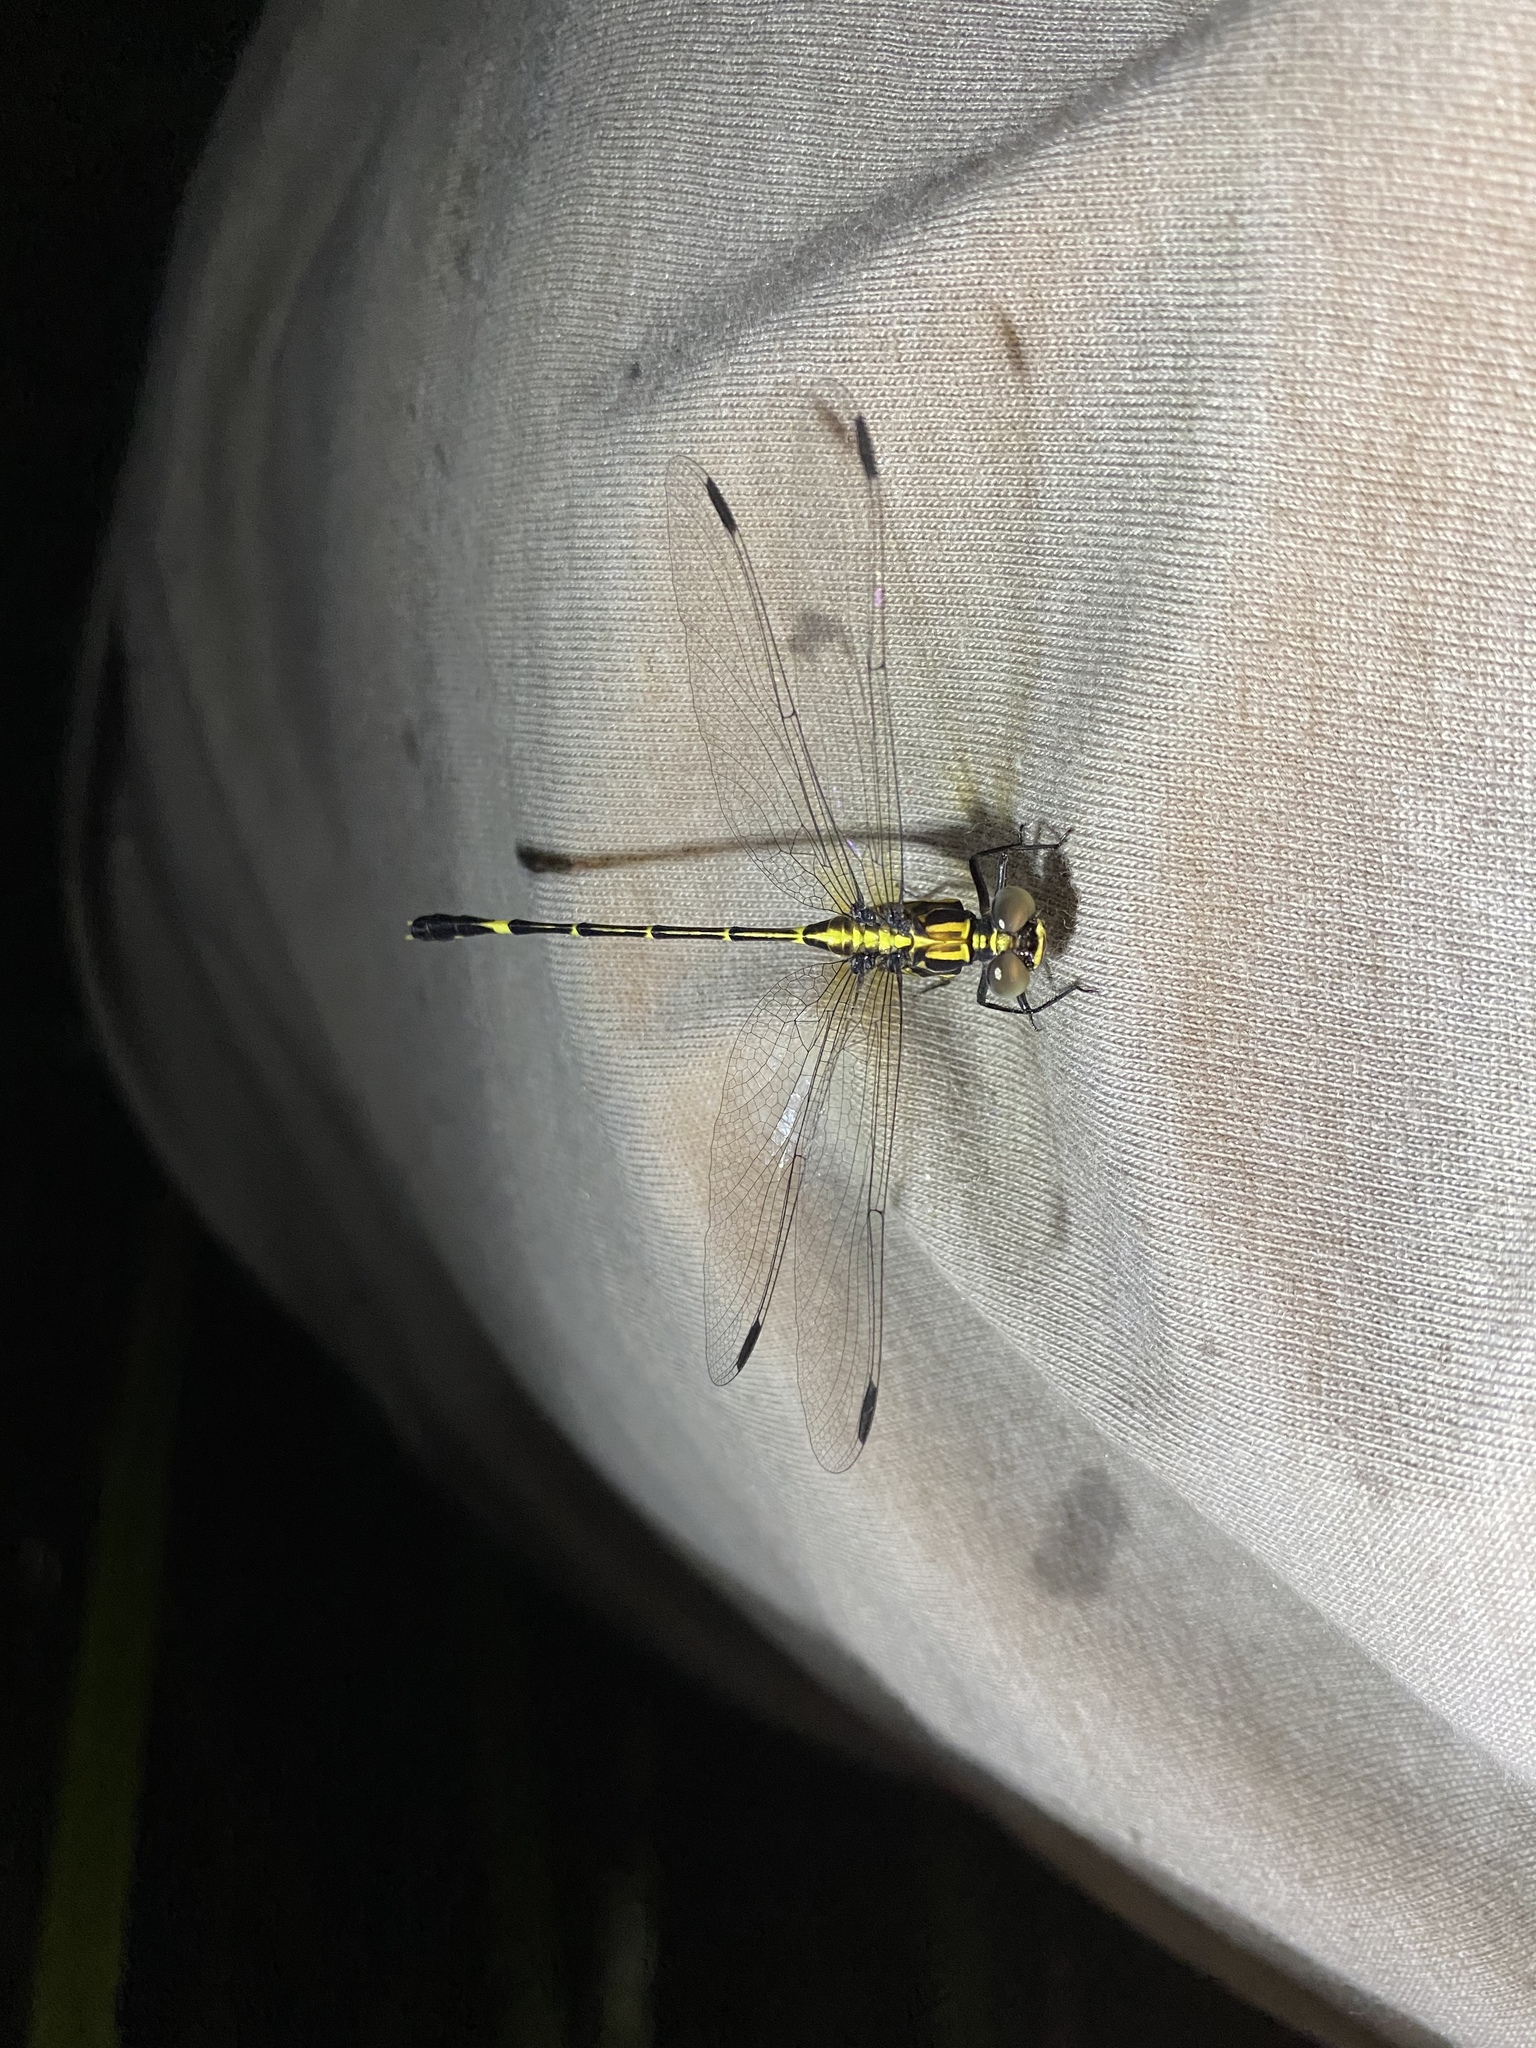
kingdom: Animalia
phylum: Arthropoda
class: Insecta
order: Odonata
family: Gomphidae
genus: Austrogomphus
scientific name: Austrogomphus prasinus
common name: Lemon-tipped hunter
